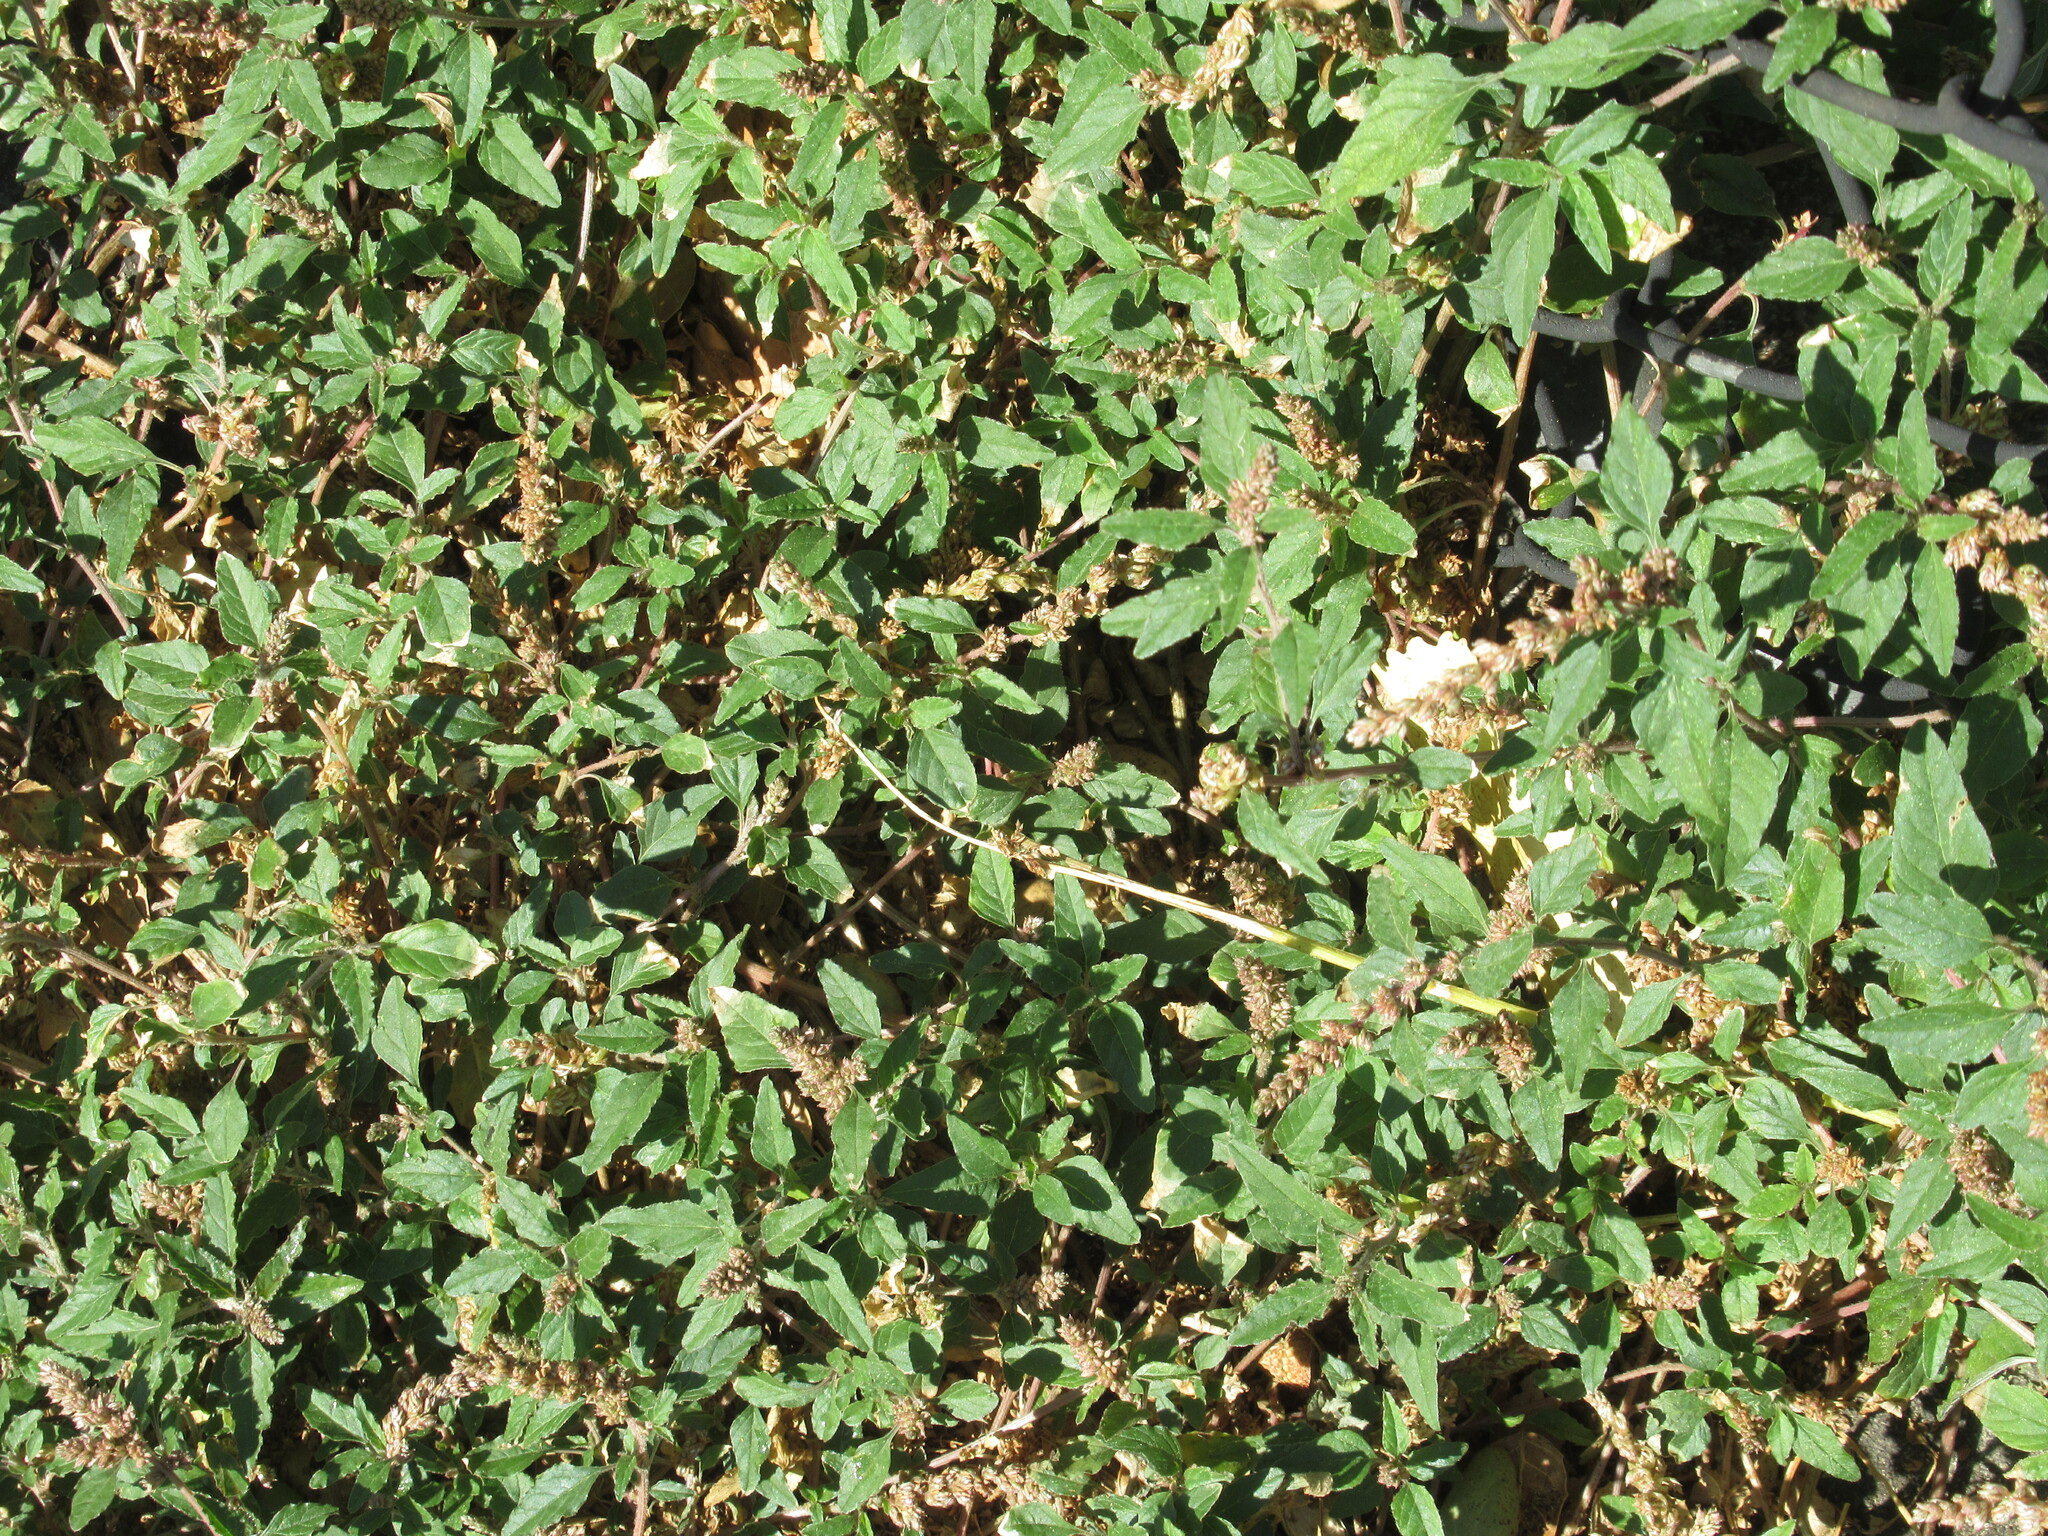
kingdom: Plantae
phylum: Tracheophyta
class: Magnoliopsida
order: Caryophyllales
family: Amaranthaceae
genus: Amaranthus
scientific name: Amaranthus deflexus
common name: Perennial pigweed
